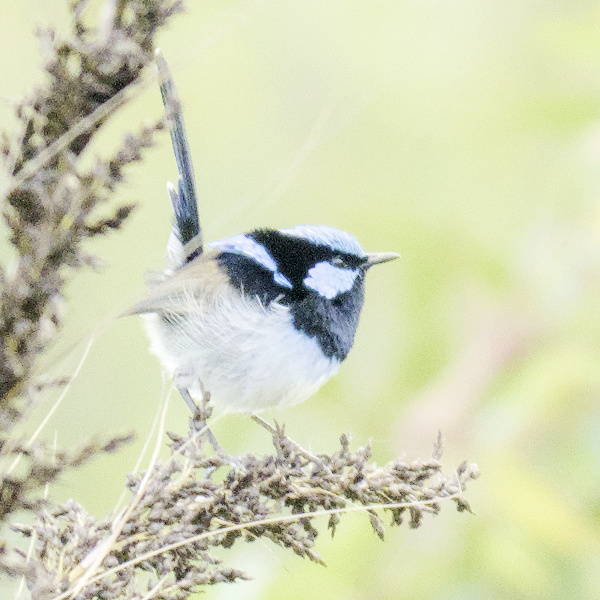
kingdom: Animalia
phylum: Chordata
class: Aves
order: Passeriformes
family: Maluridae
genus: Malurus
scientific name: Malurus cyaneus
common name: Superb fairywren
